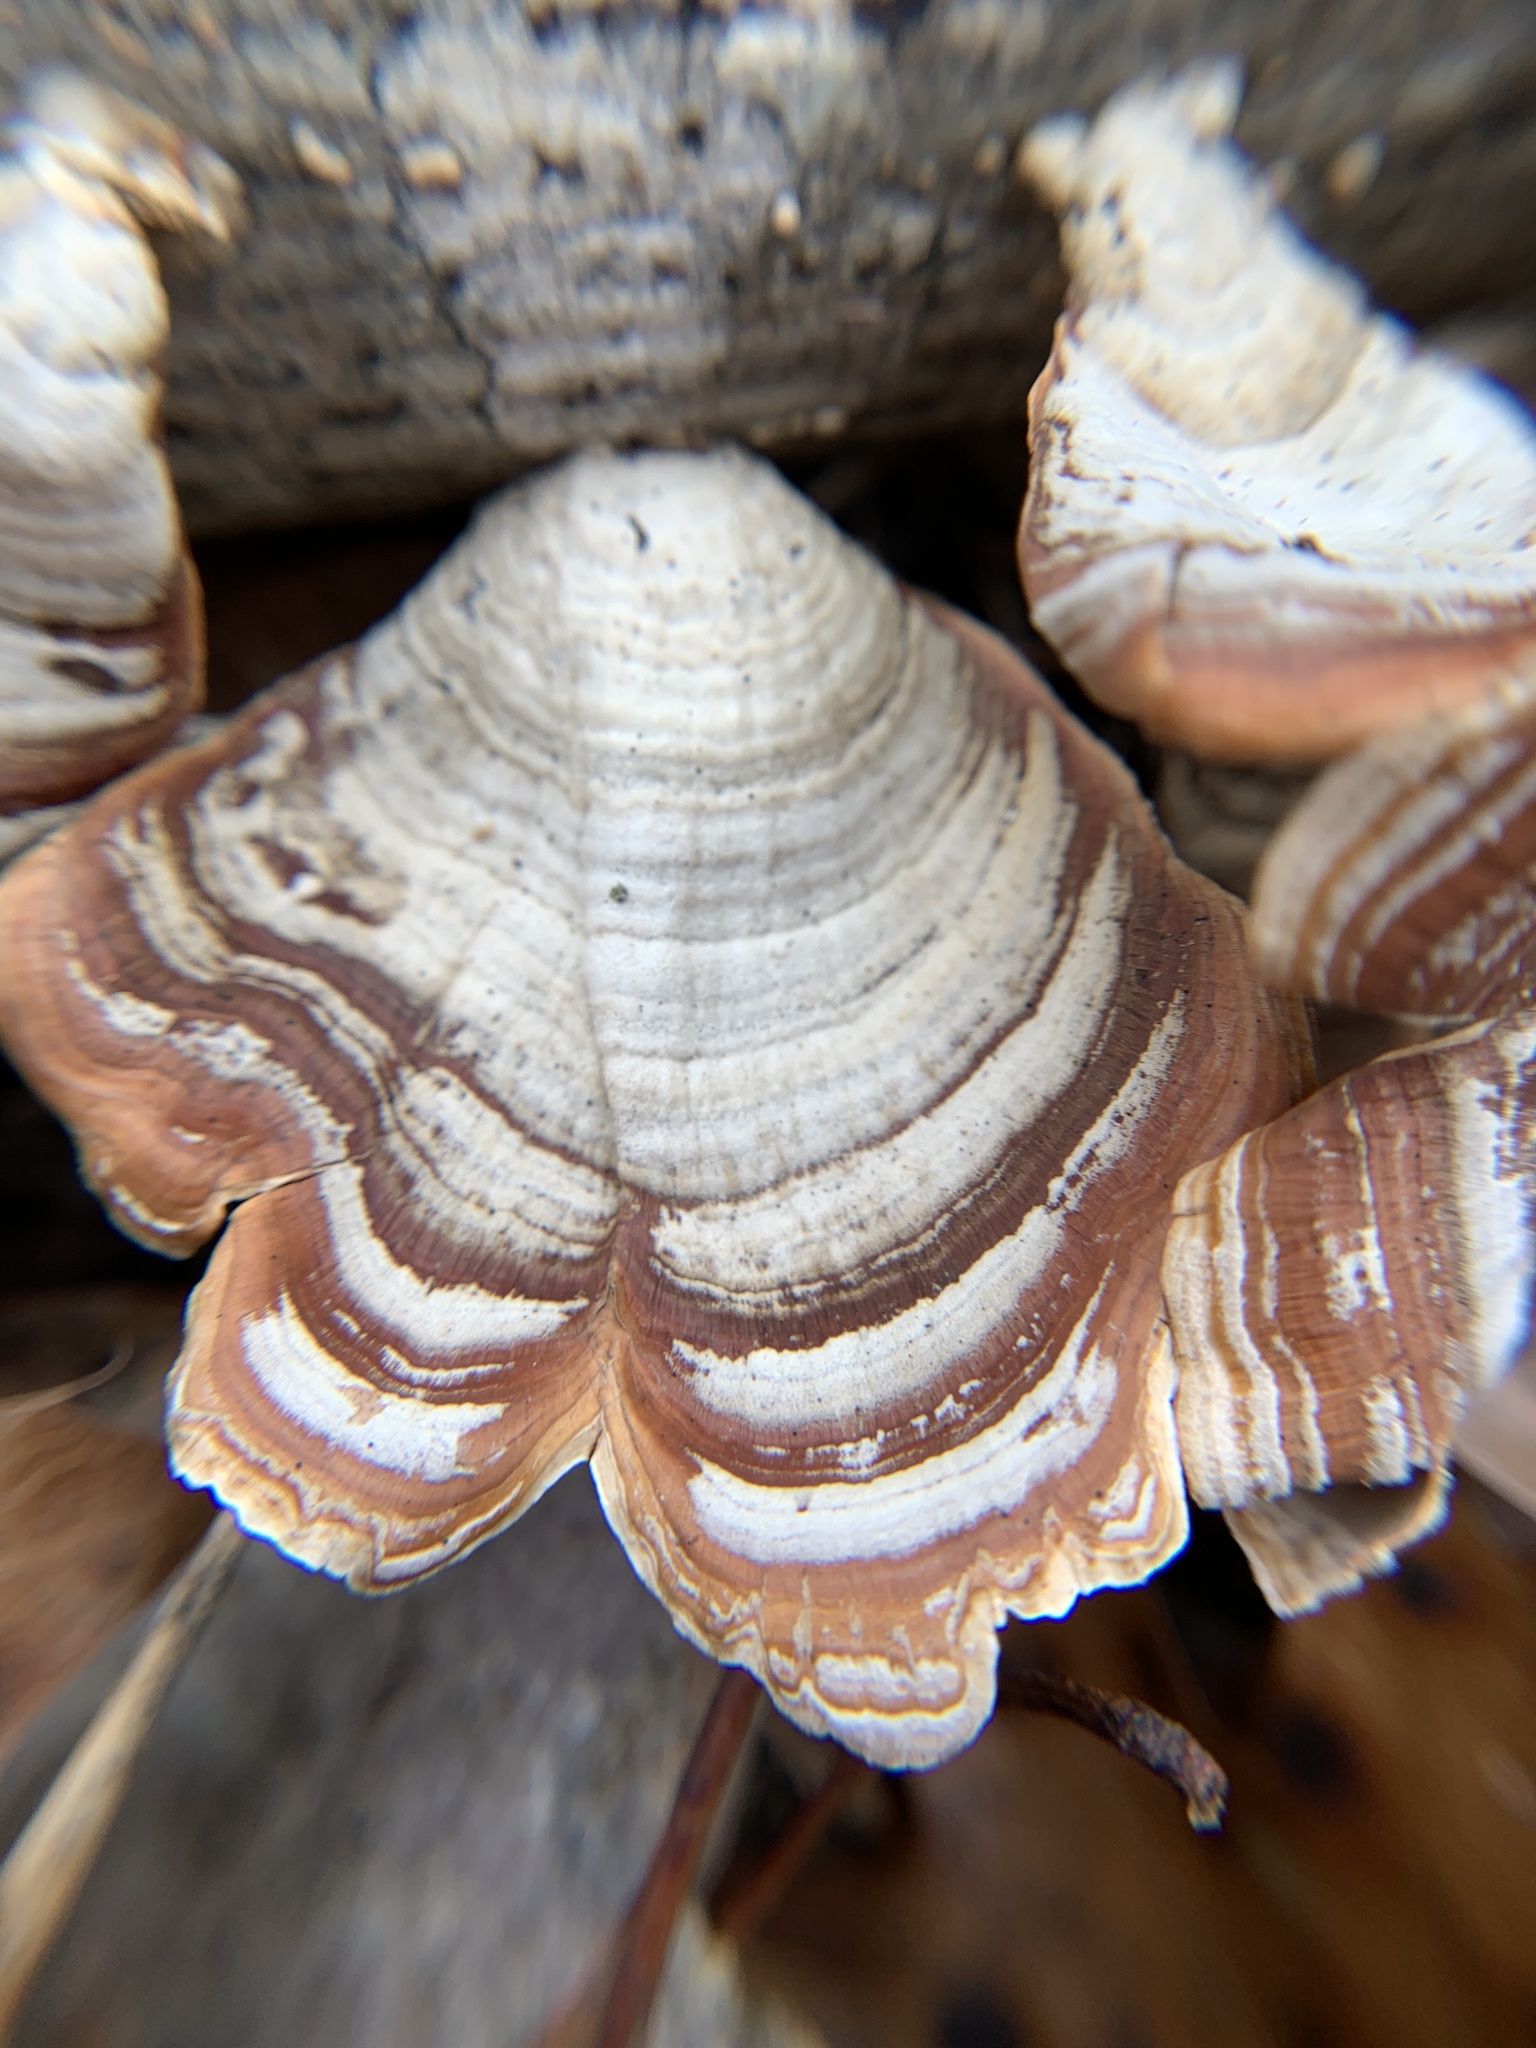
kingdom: Fungi
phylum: Basidiomycota
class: Agaricomycetes
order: Russulales
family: Stereaceae
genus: Stereum
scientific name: Stereum lobatum
